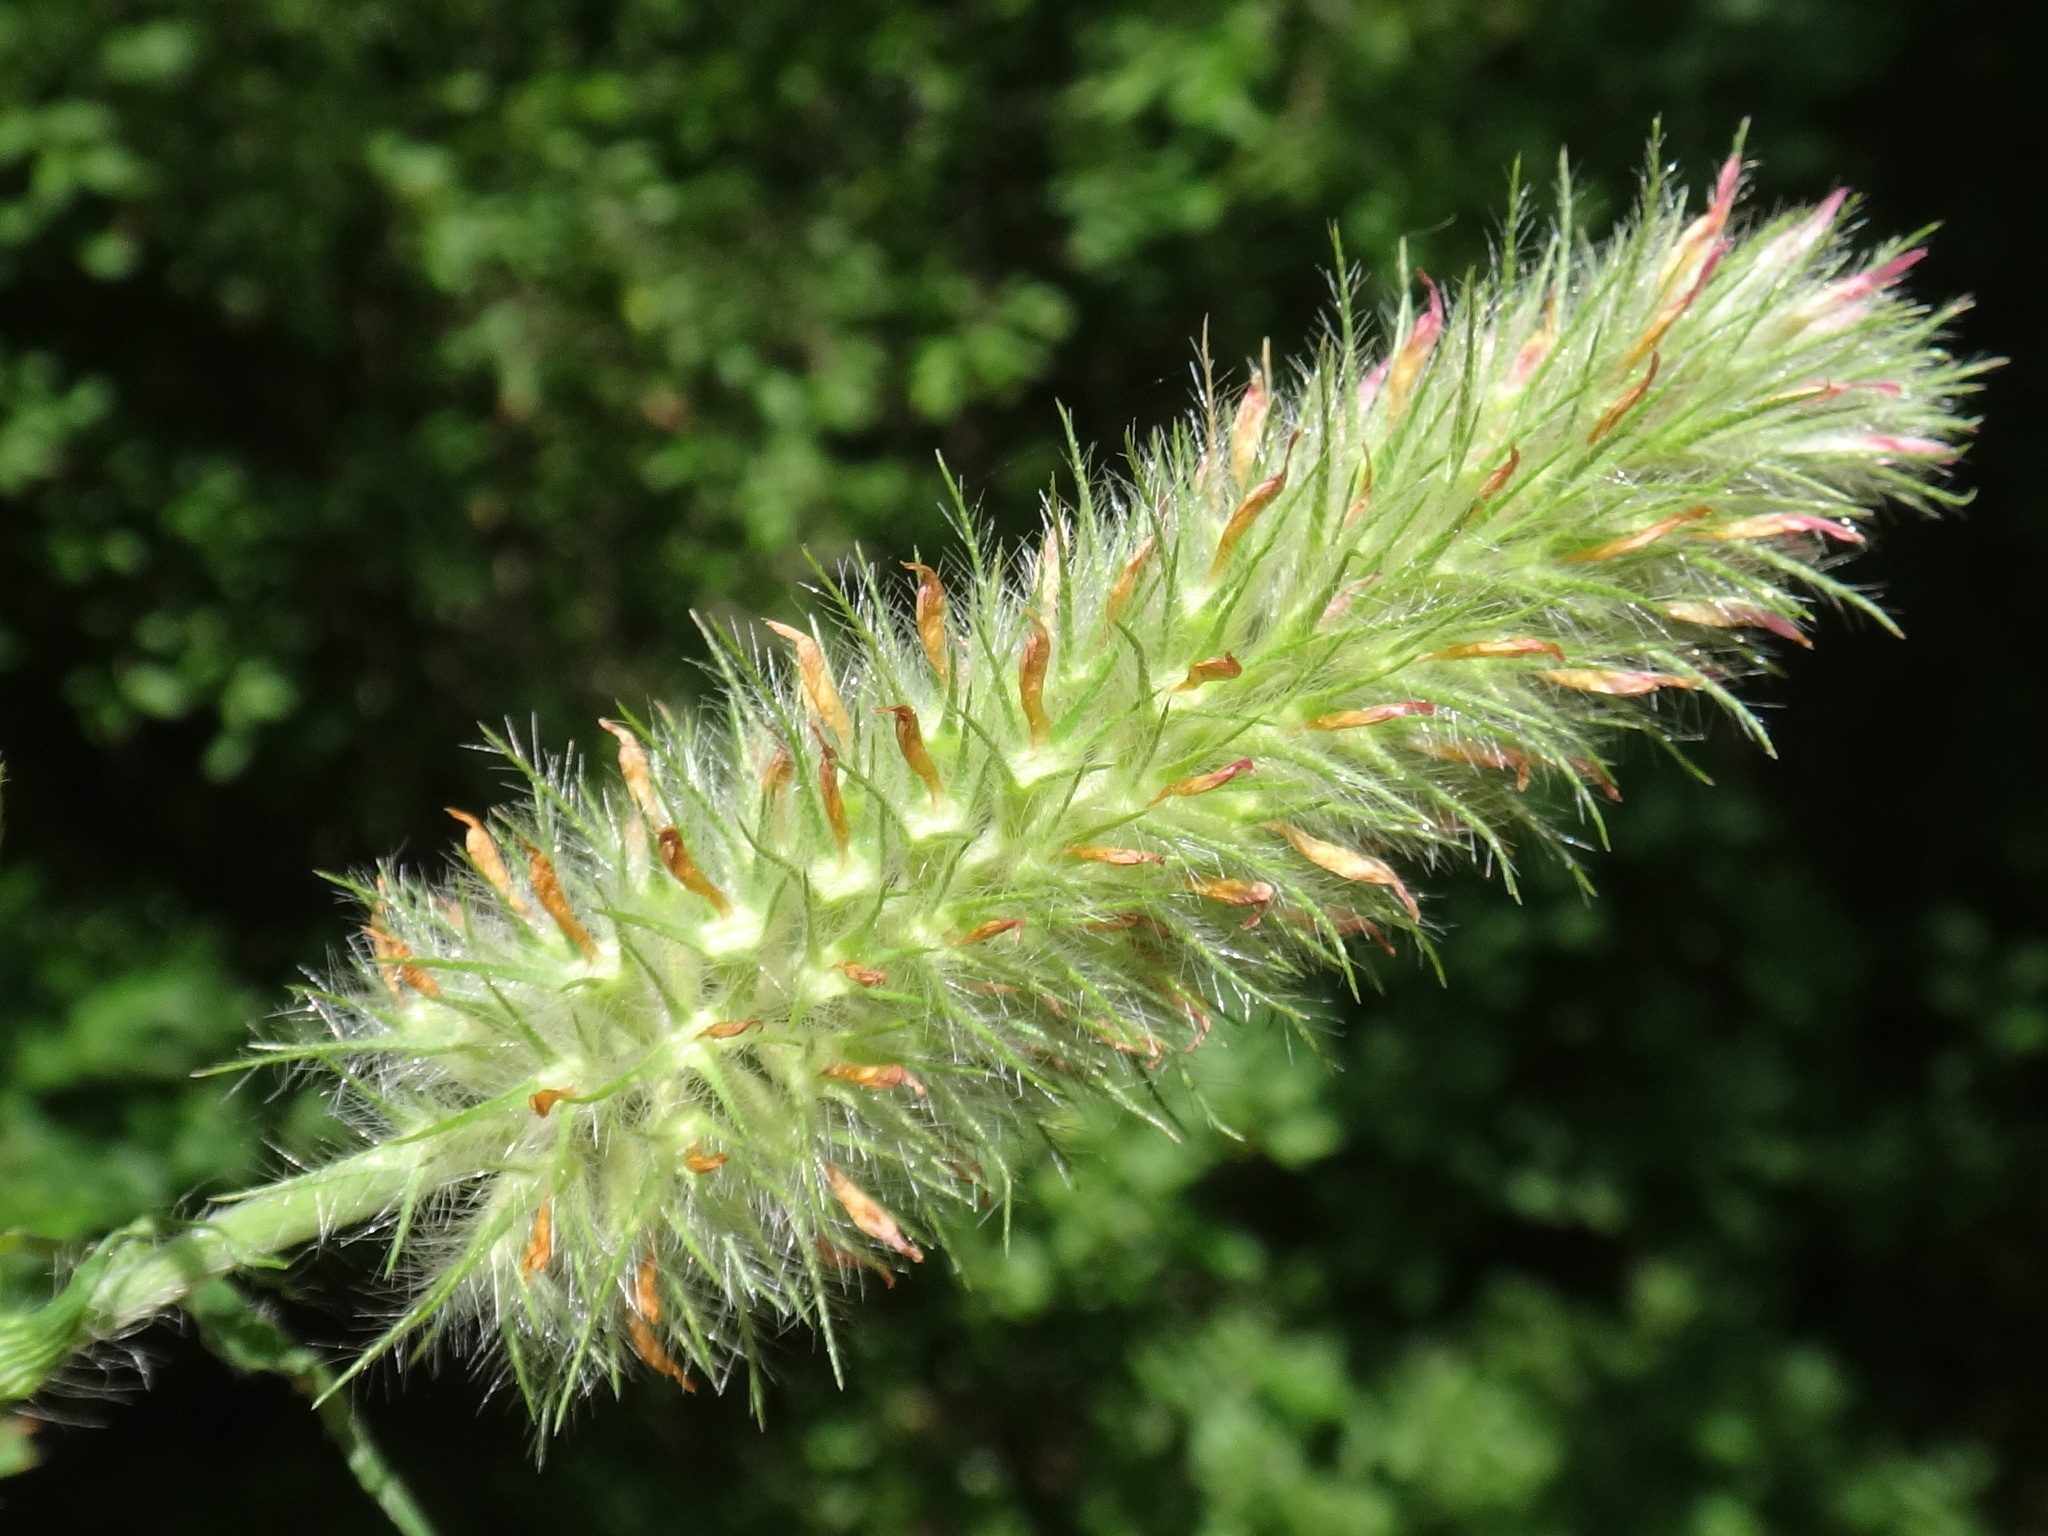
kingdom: Plantae
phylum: Tracheophyta
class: Magnoliopsida
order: Fabales
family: Fabaceae
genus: Trifolium
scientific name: Trifolium angustifolium
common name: Narrow clover
